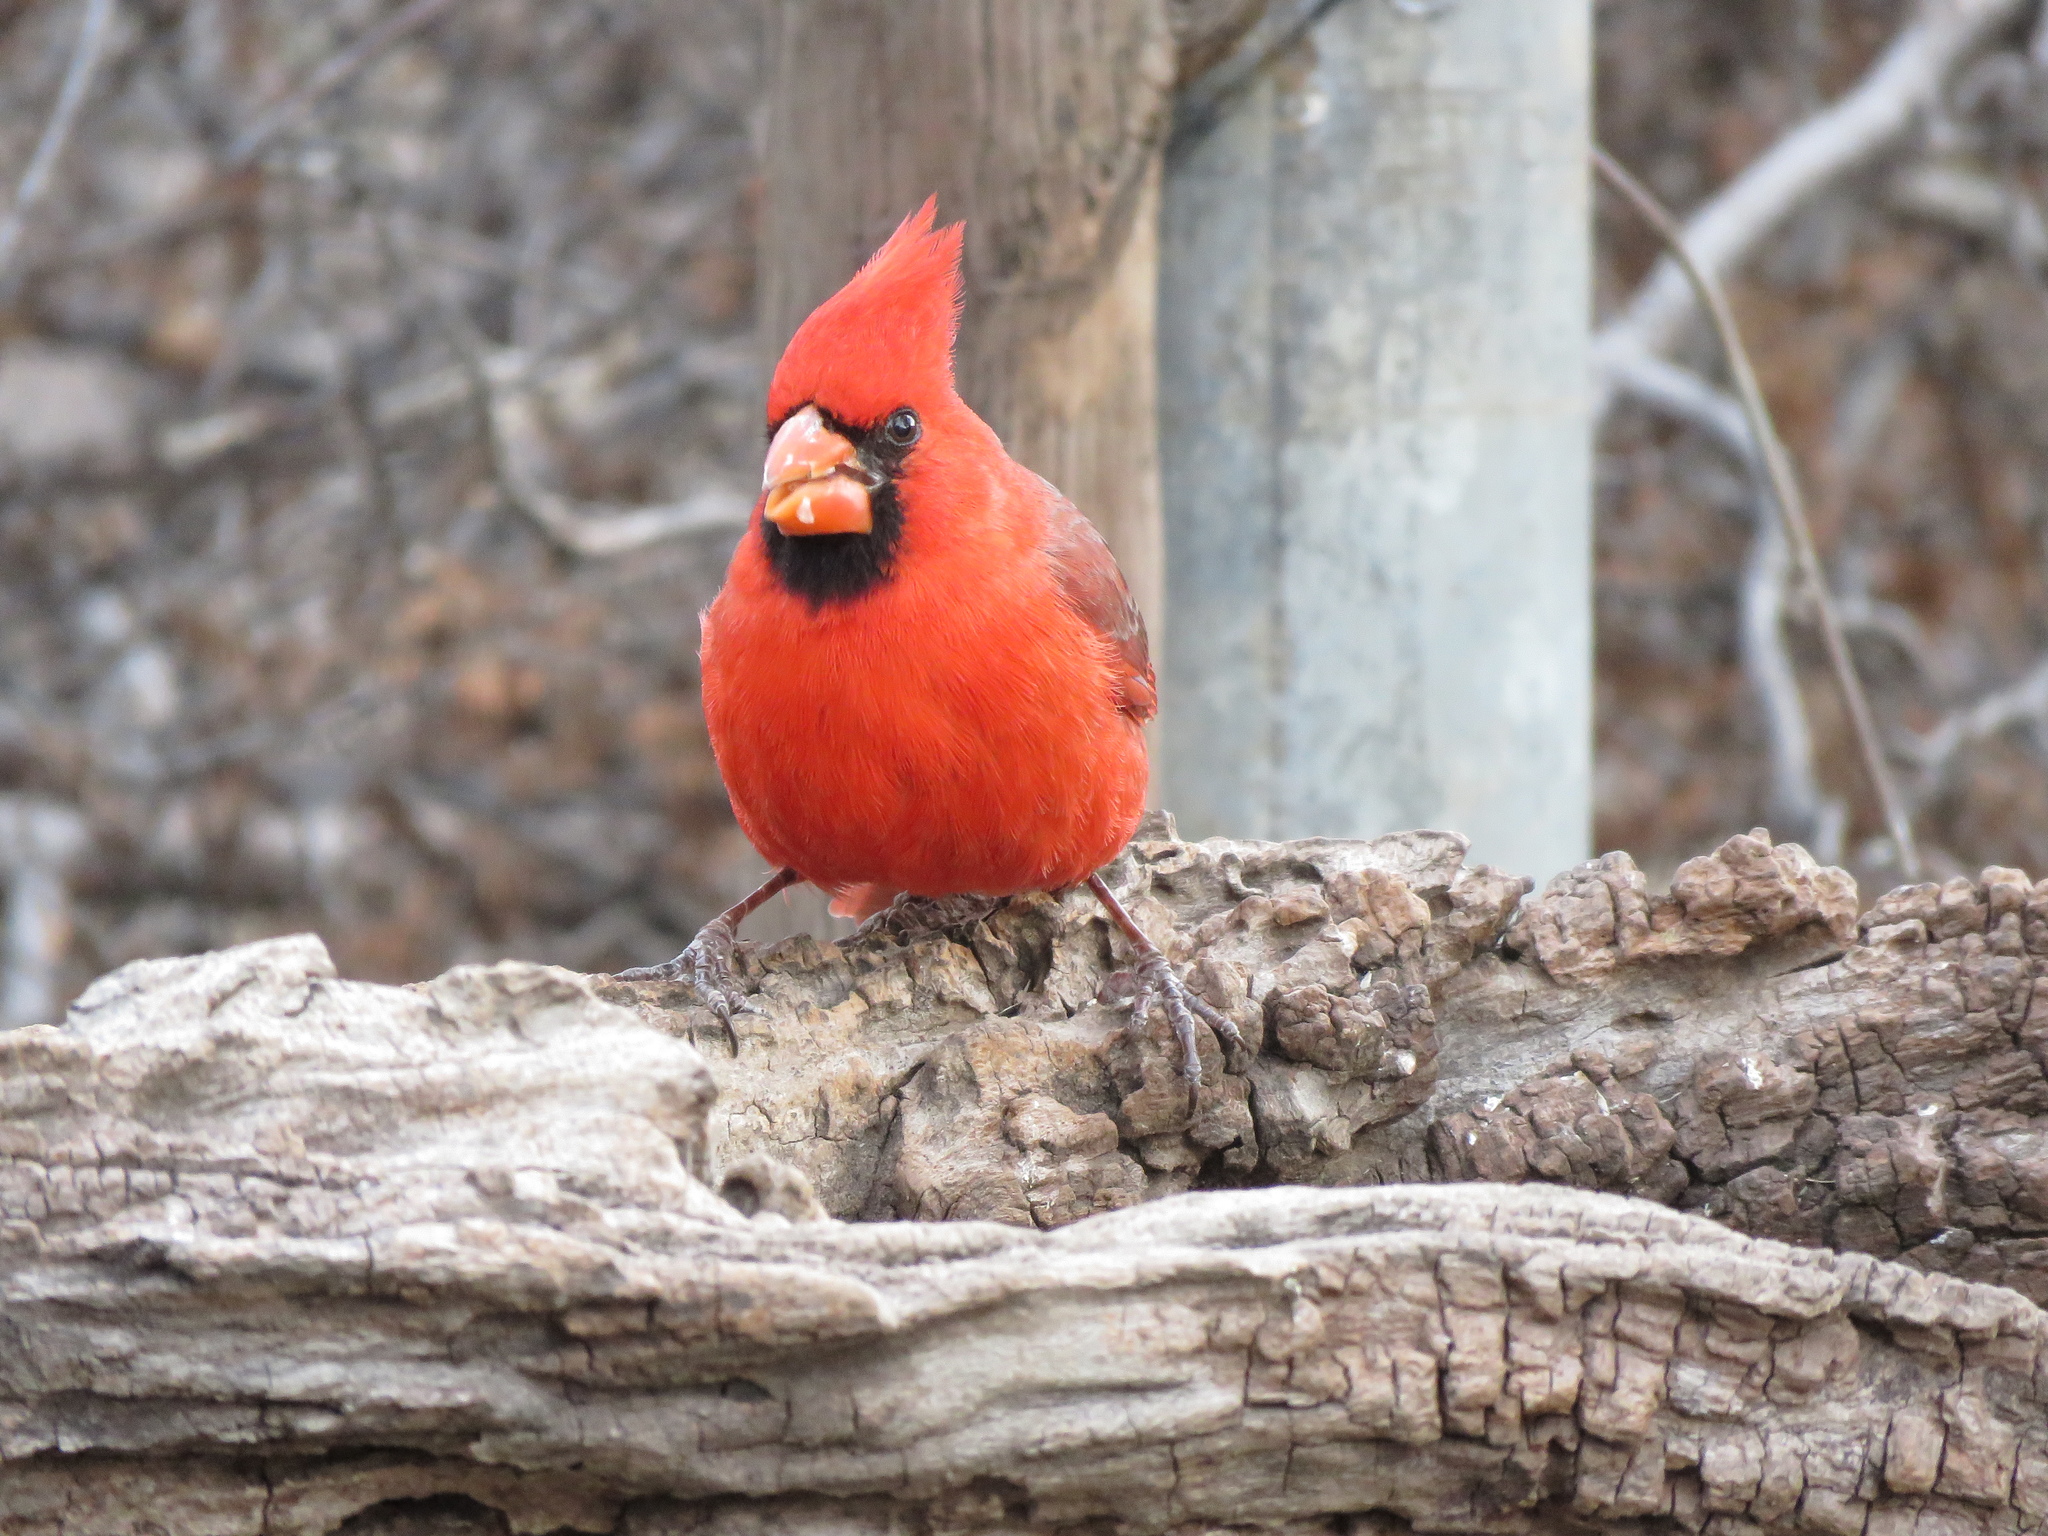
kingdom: Animalia
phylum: Chordata
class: Aves
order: Passeriformes
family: Cardinalidae
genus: Cardinalis
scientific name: Cardinalis cardinalis
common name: Northern cardinal
